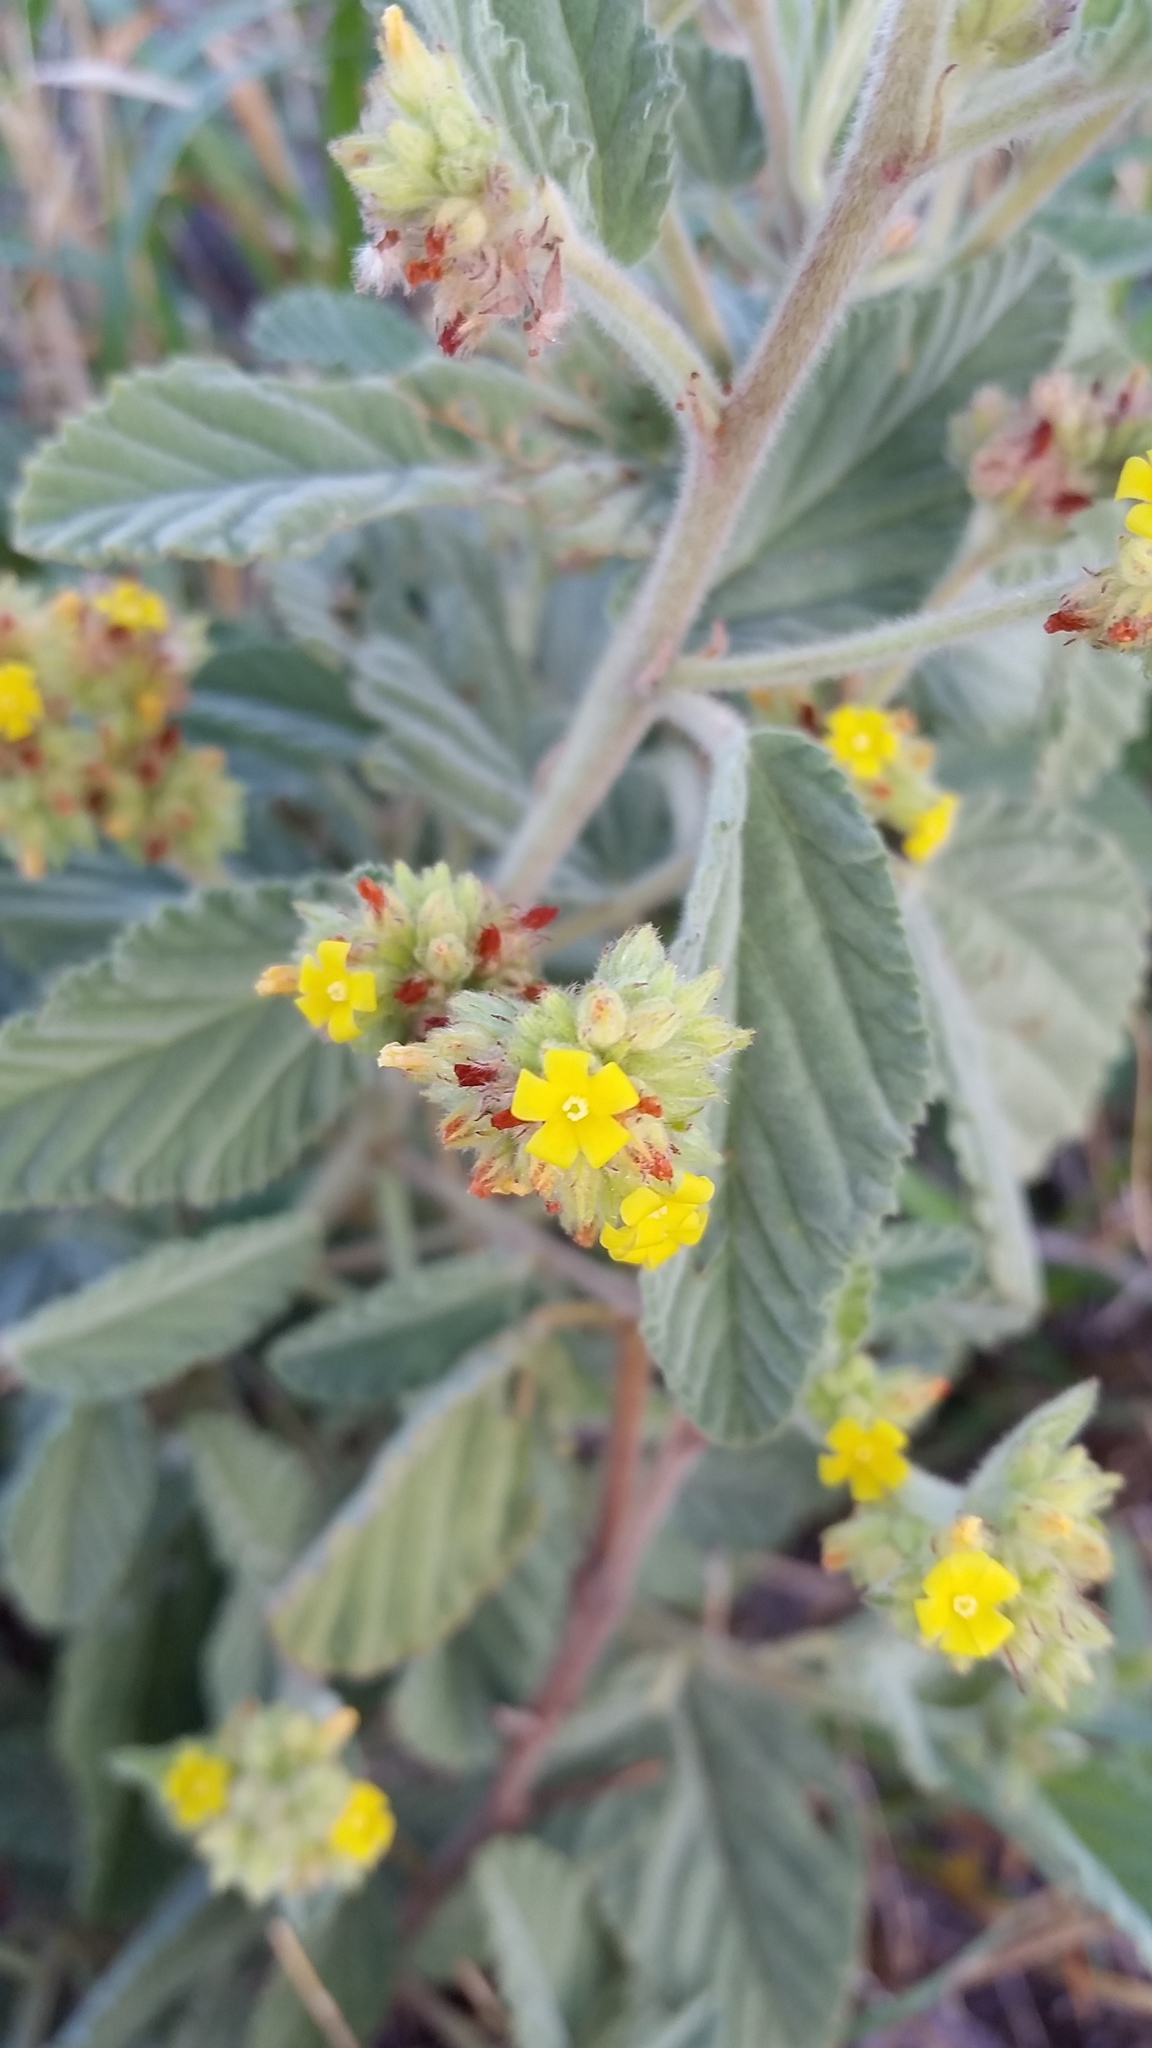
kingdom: Plantae
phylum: Tracheophyta
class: Magnoliopsida
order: Malvales
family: Malvaceae
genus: Waltheria
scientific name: Waltheria indica
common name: Leather-coat
